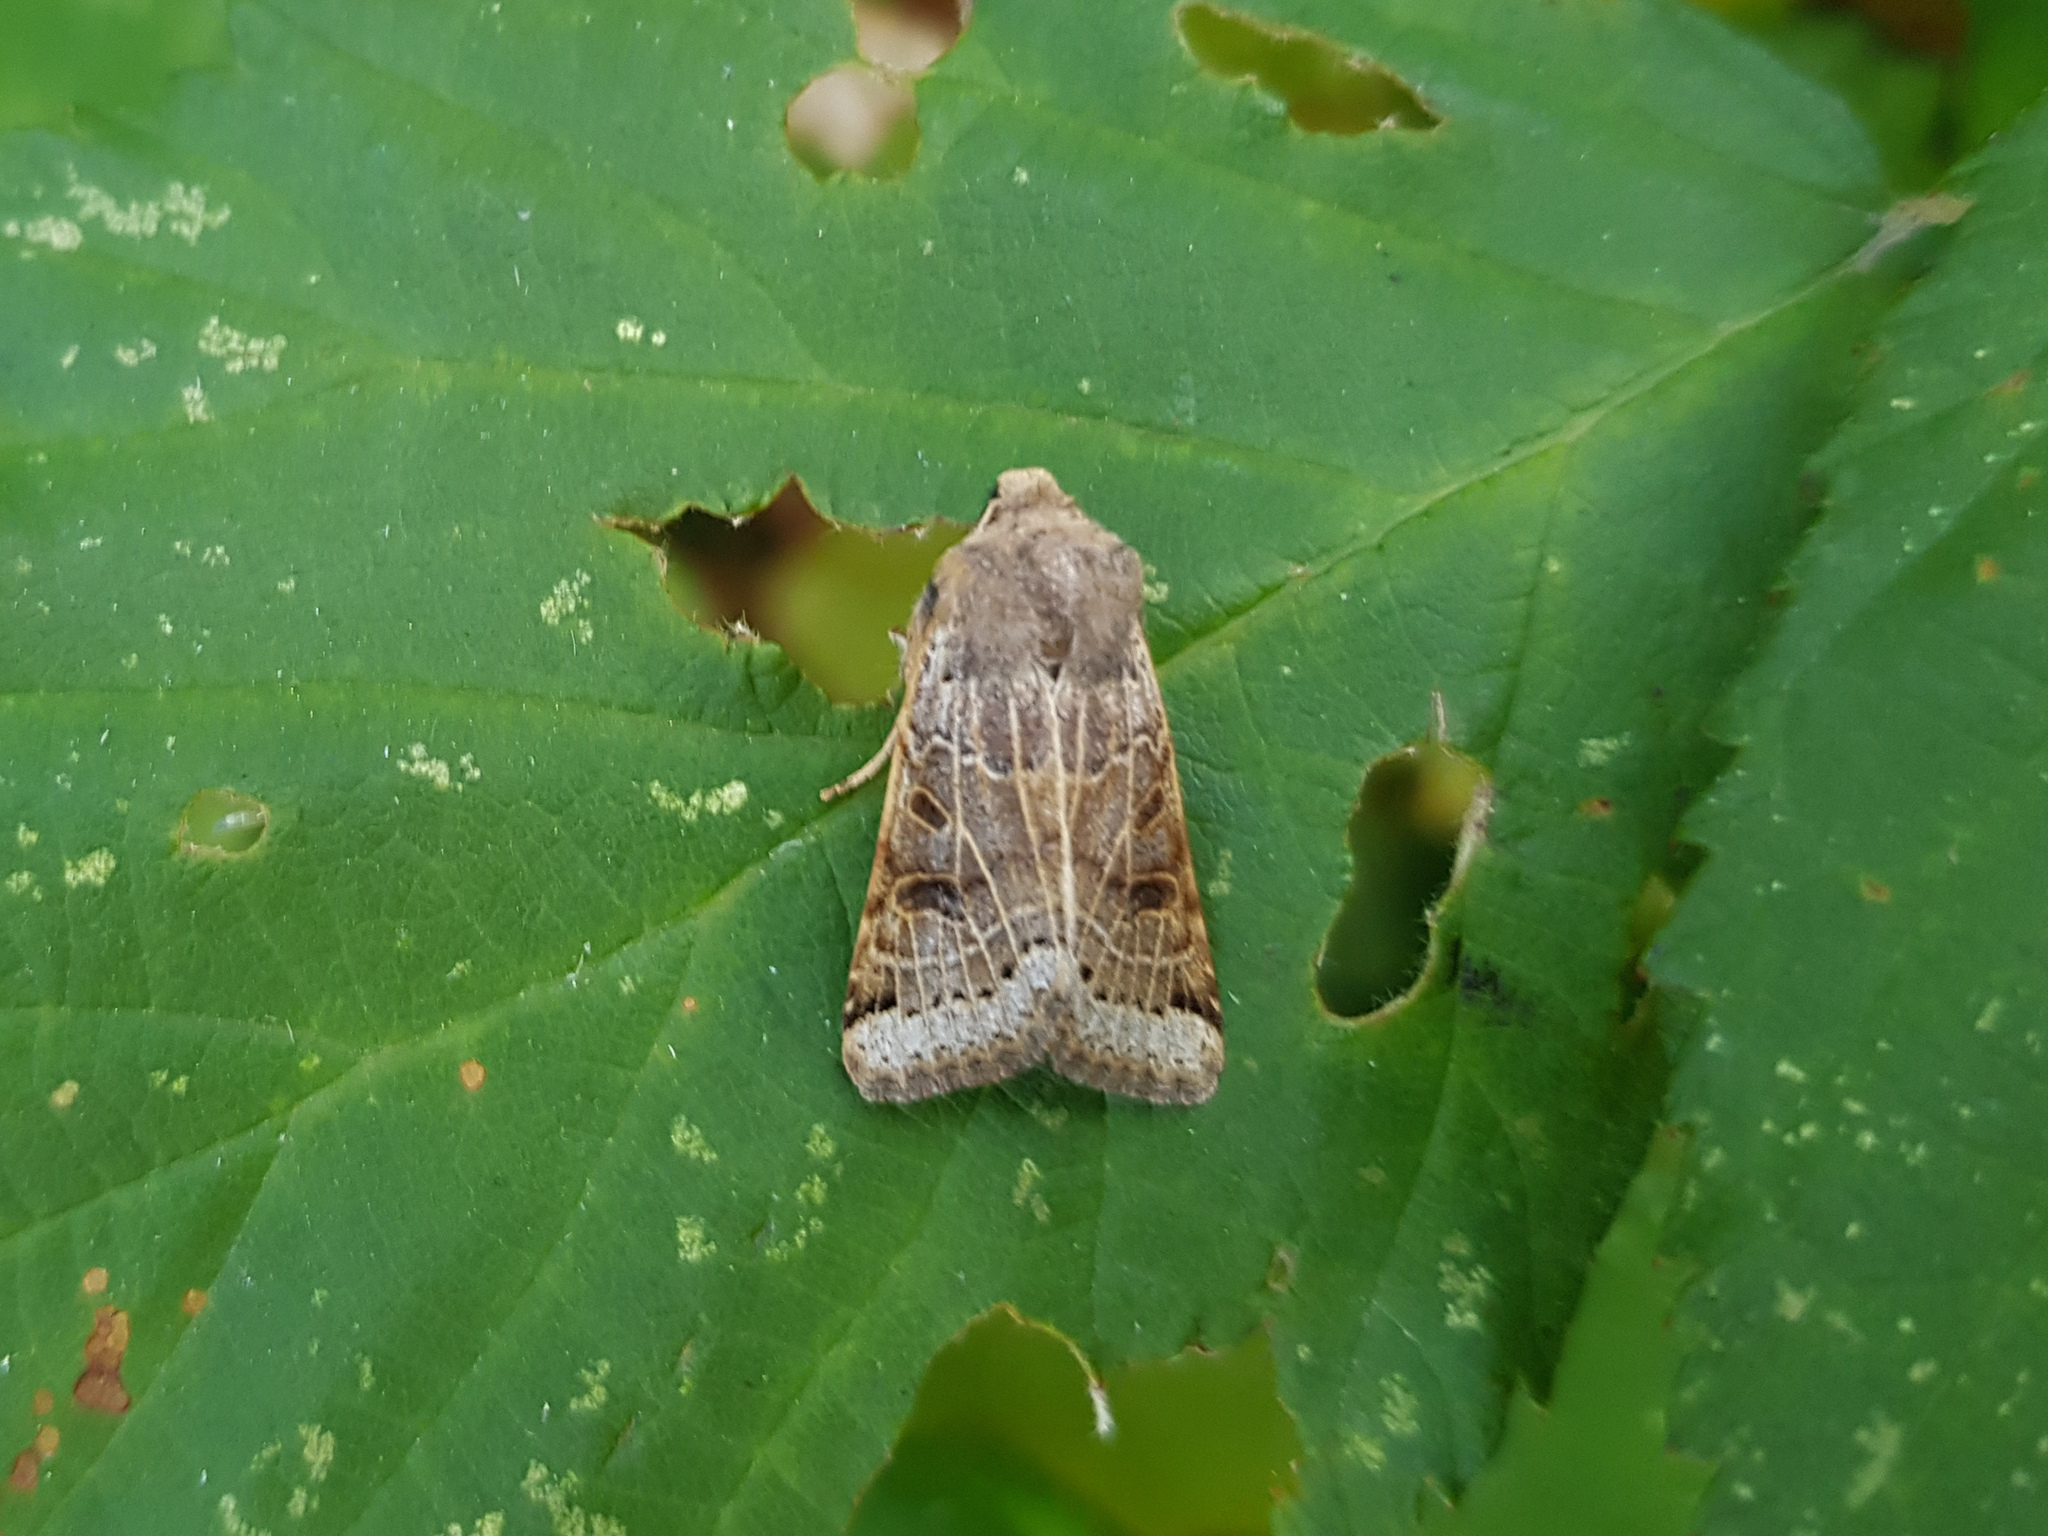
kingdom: Animalia
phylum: Arthropoda
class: Insecta
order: Lepidoptera
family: Noctuidae
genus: Agrochola
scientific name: Agrochola lunosa
